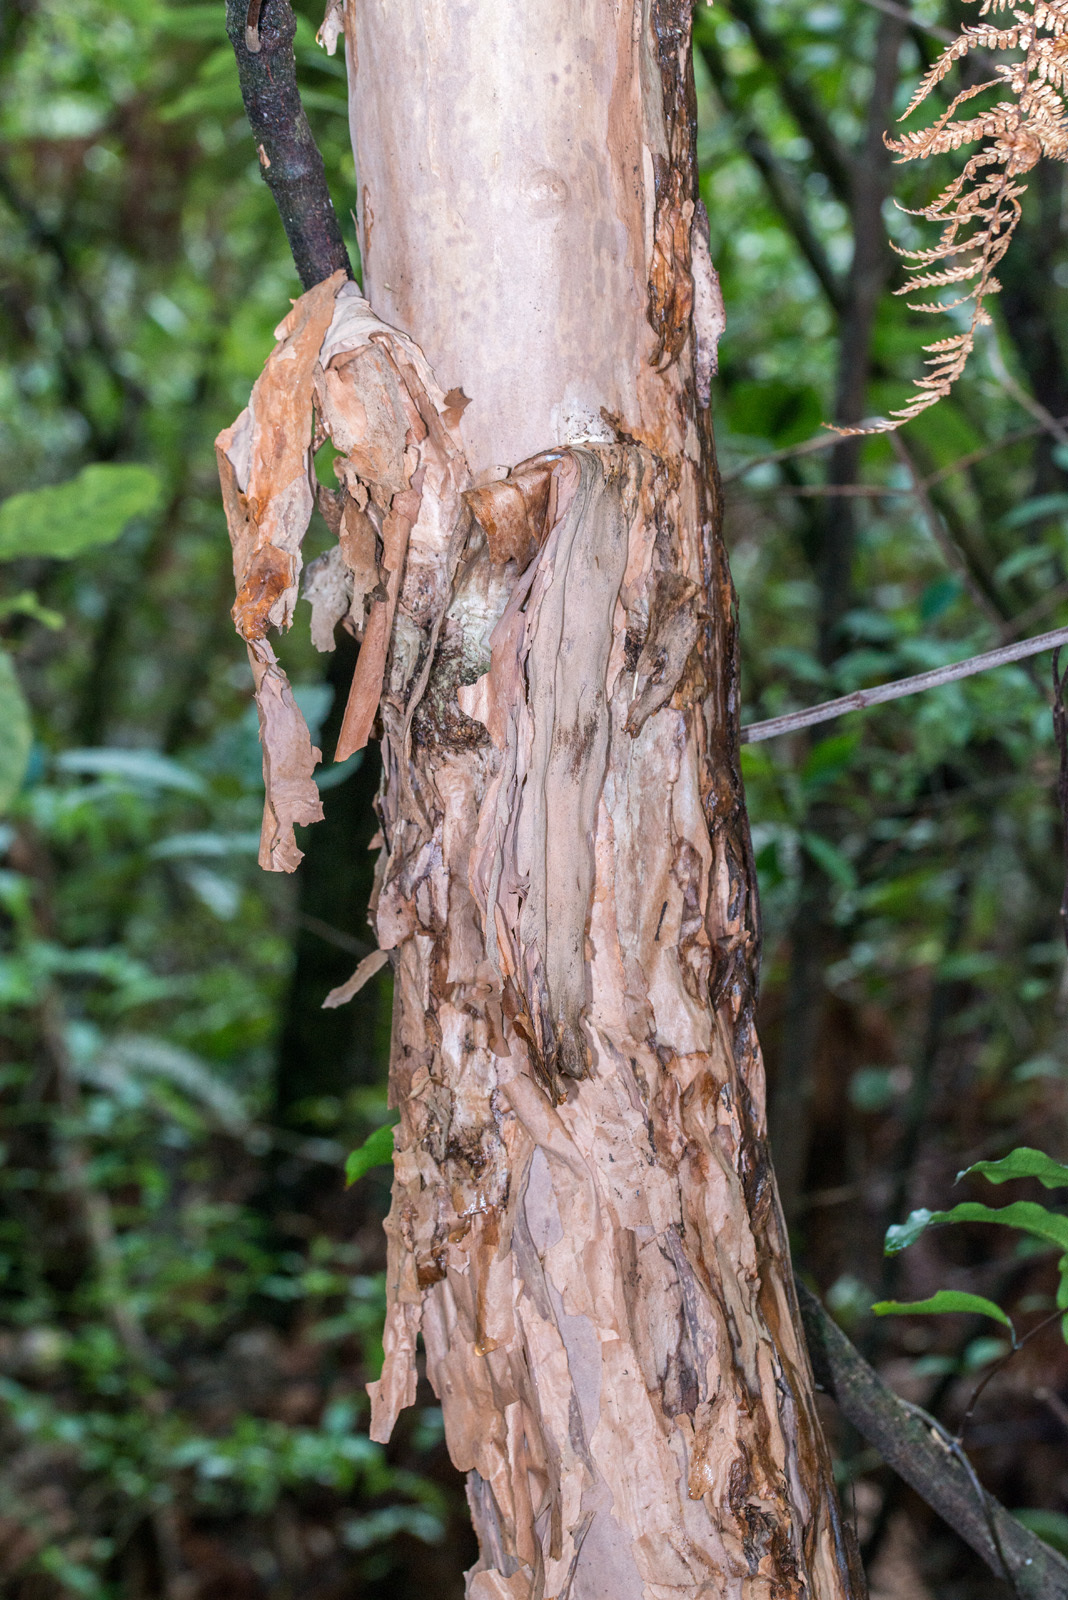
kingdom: Plantae
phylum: Tracheophyta
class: Magnoliopsida
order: Myrtales
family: Onagraceae
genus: Fuchsia
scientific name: Fuchsia excorticata
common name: Tree fuchsia
